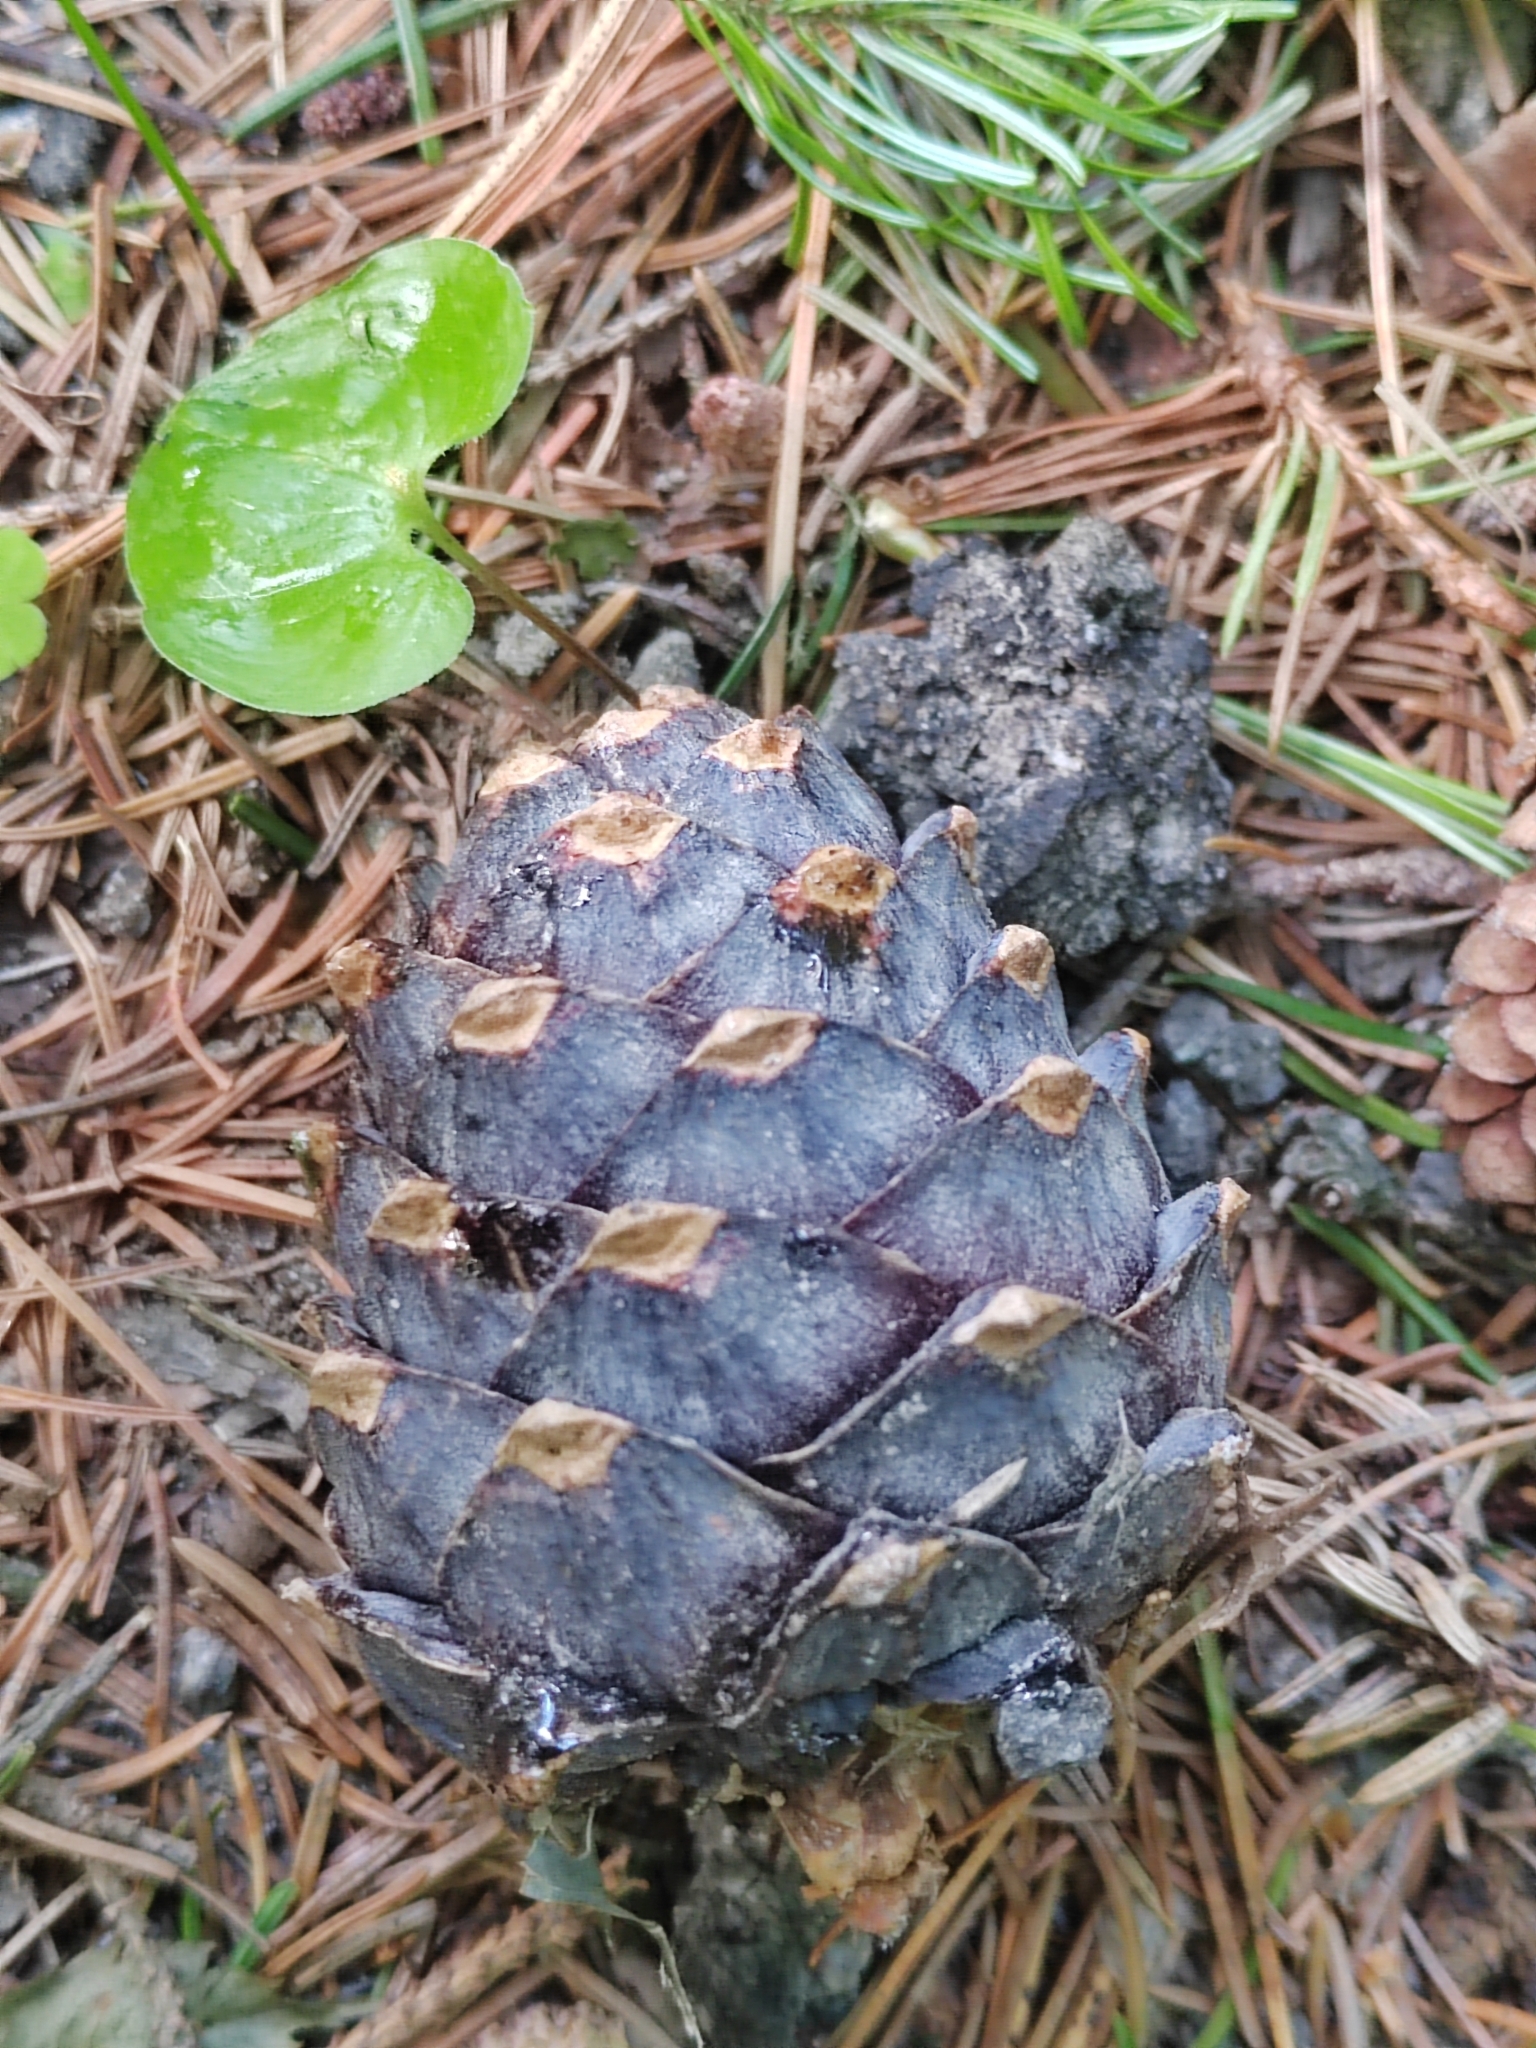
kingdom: Plantae
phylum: Tracheophyta
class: Pinopsida
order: Pinales
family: Pinaceae
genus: Pinus
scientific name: Pinus sibirica
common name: Siberian pine
